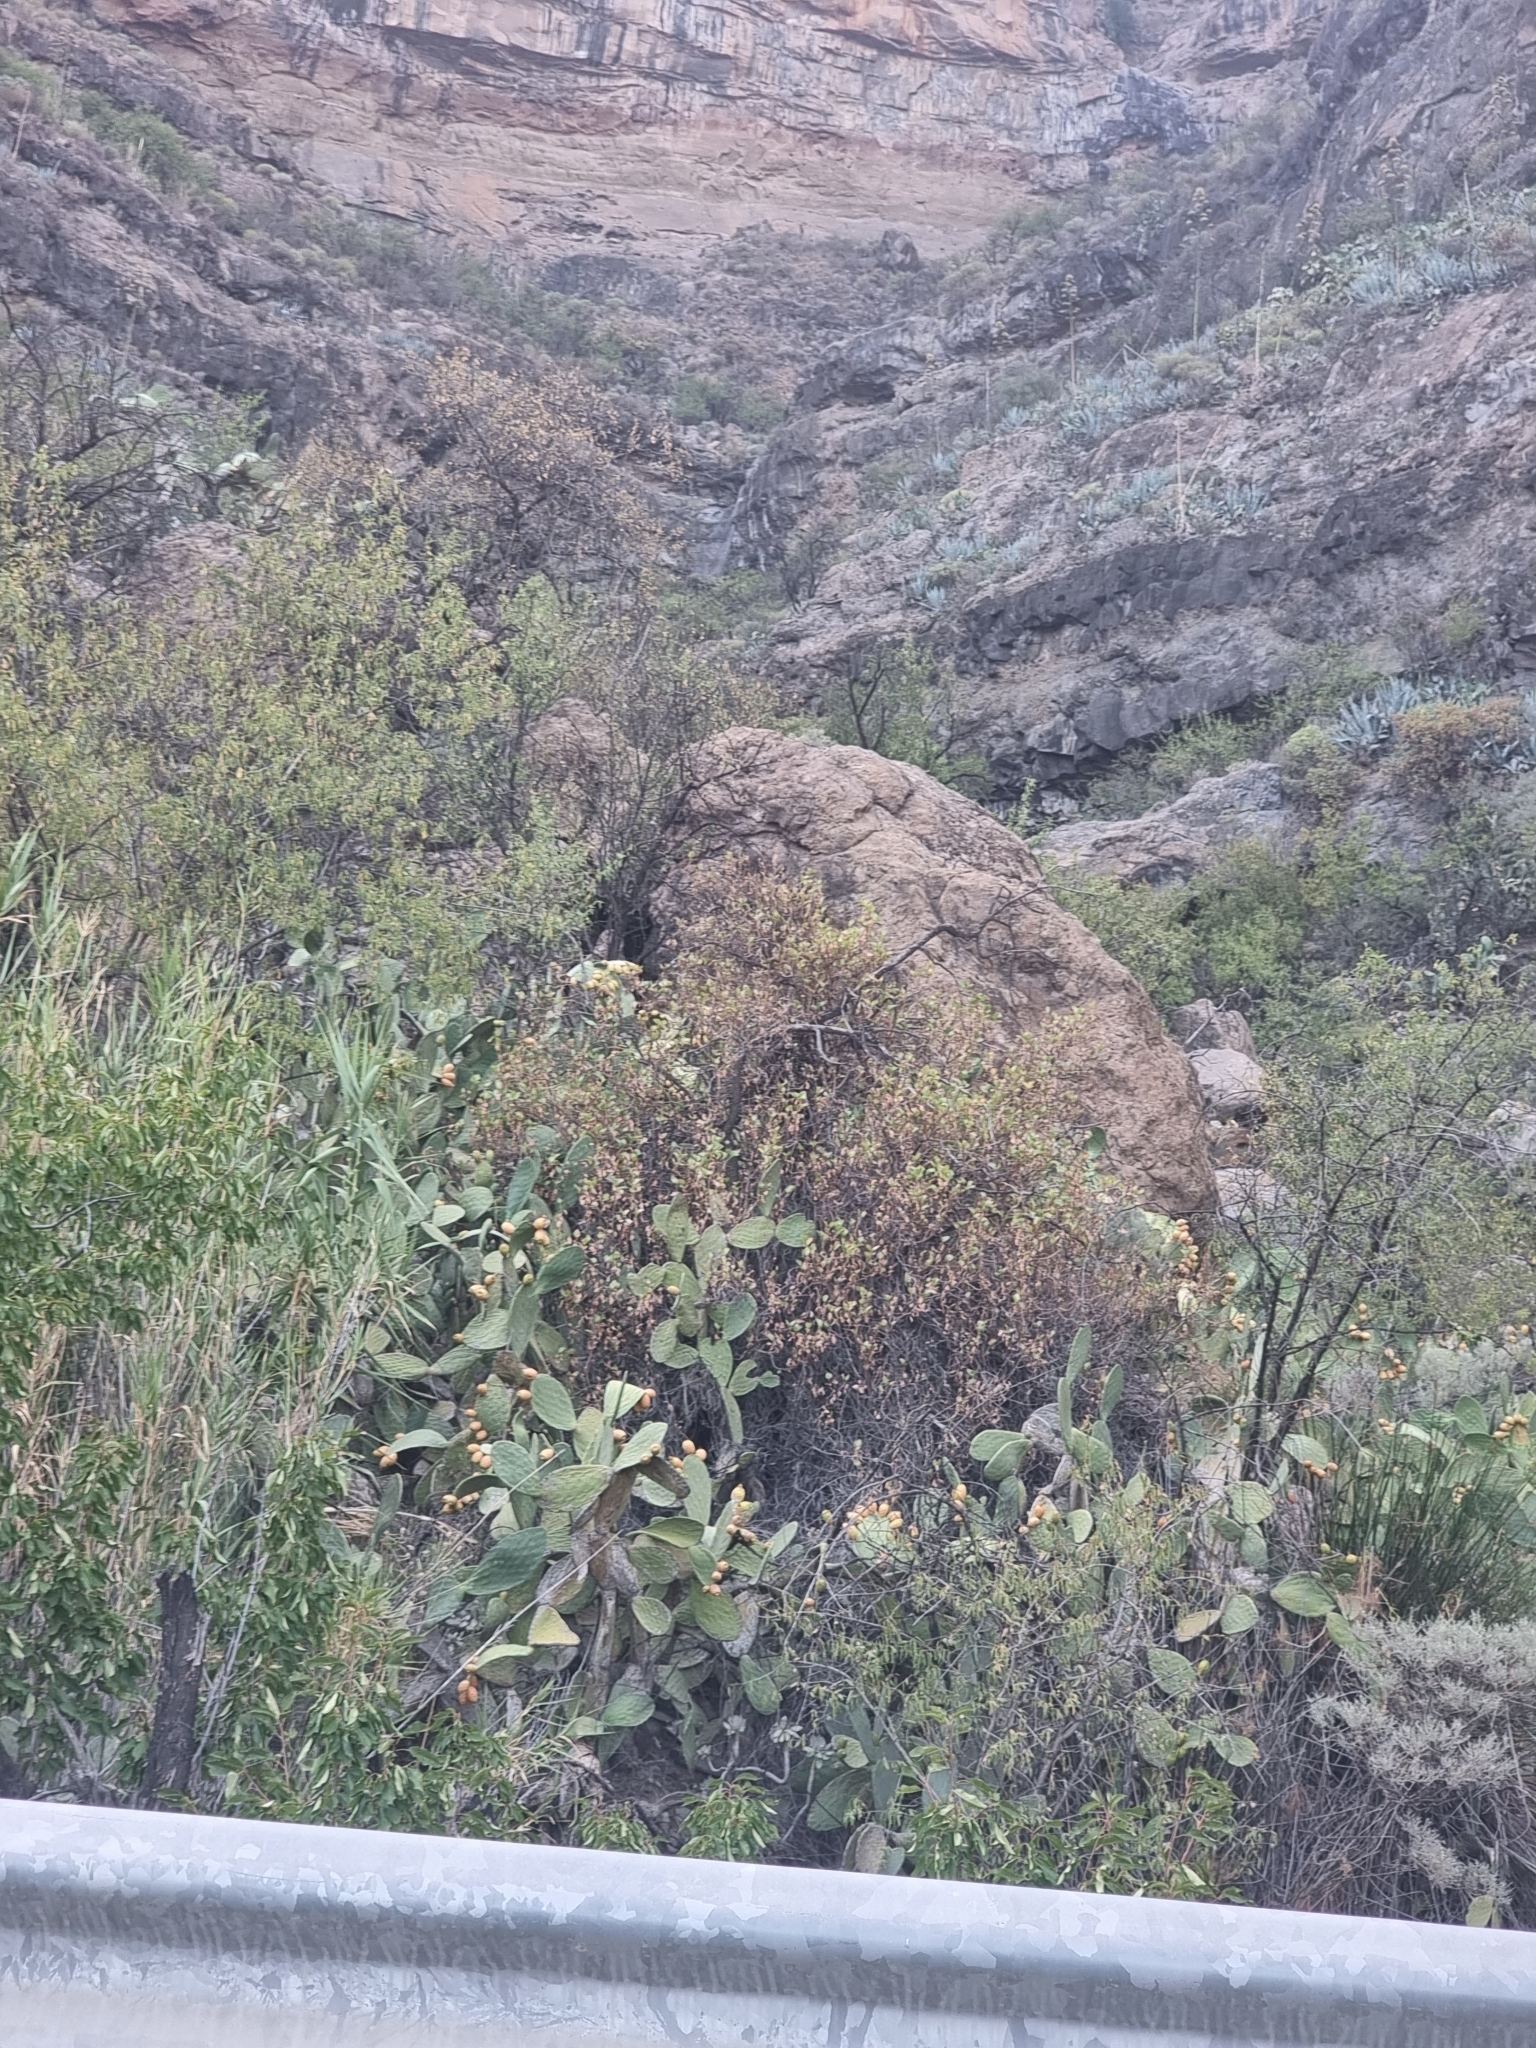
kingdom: Plantae
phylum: Tracheophyta
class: Magnoliopsida
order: Caryophyllales
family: Polygonaceae
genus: Rumex
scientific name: Rumex lunaria
